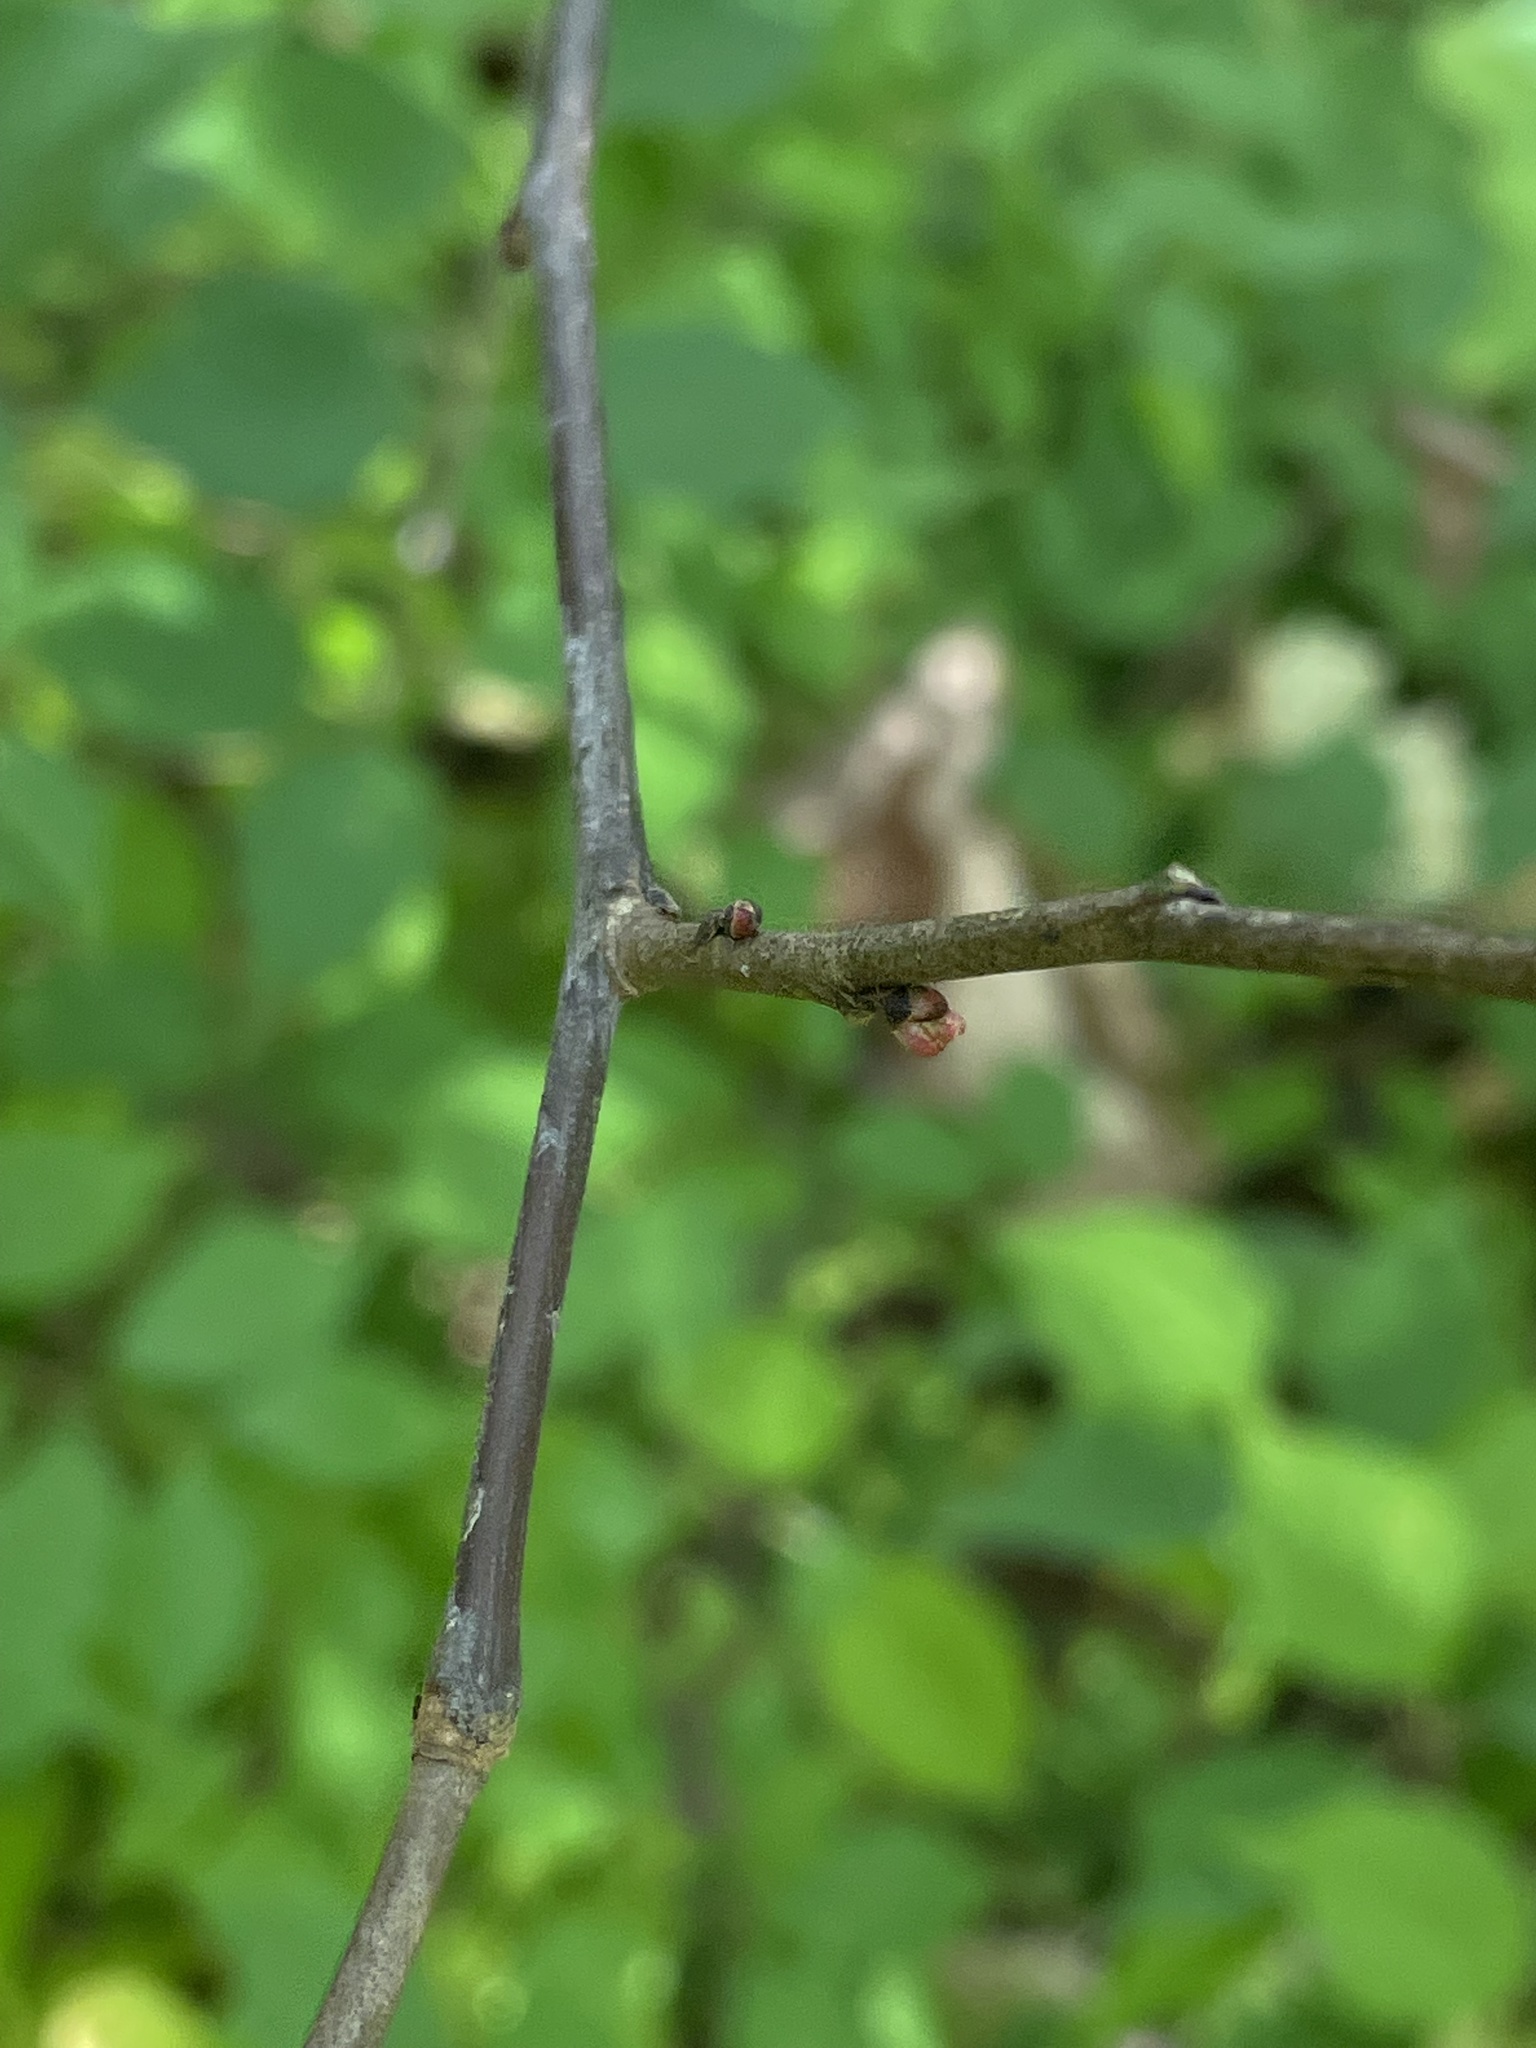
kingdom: Plantae
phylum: Tracheophyta
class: Magnoliopsida
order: Fabales
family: Fabaceae
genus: Cercis
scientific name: Cercis canadensis
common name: Eastern redbud
